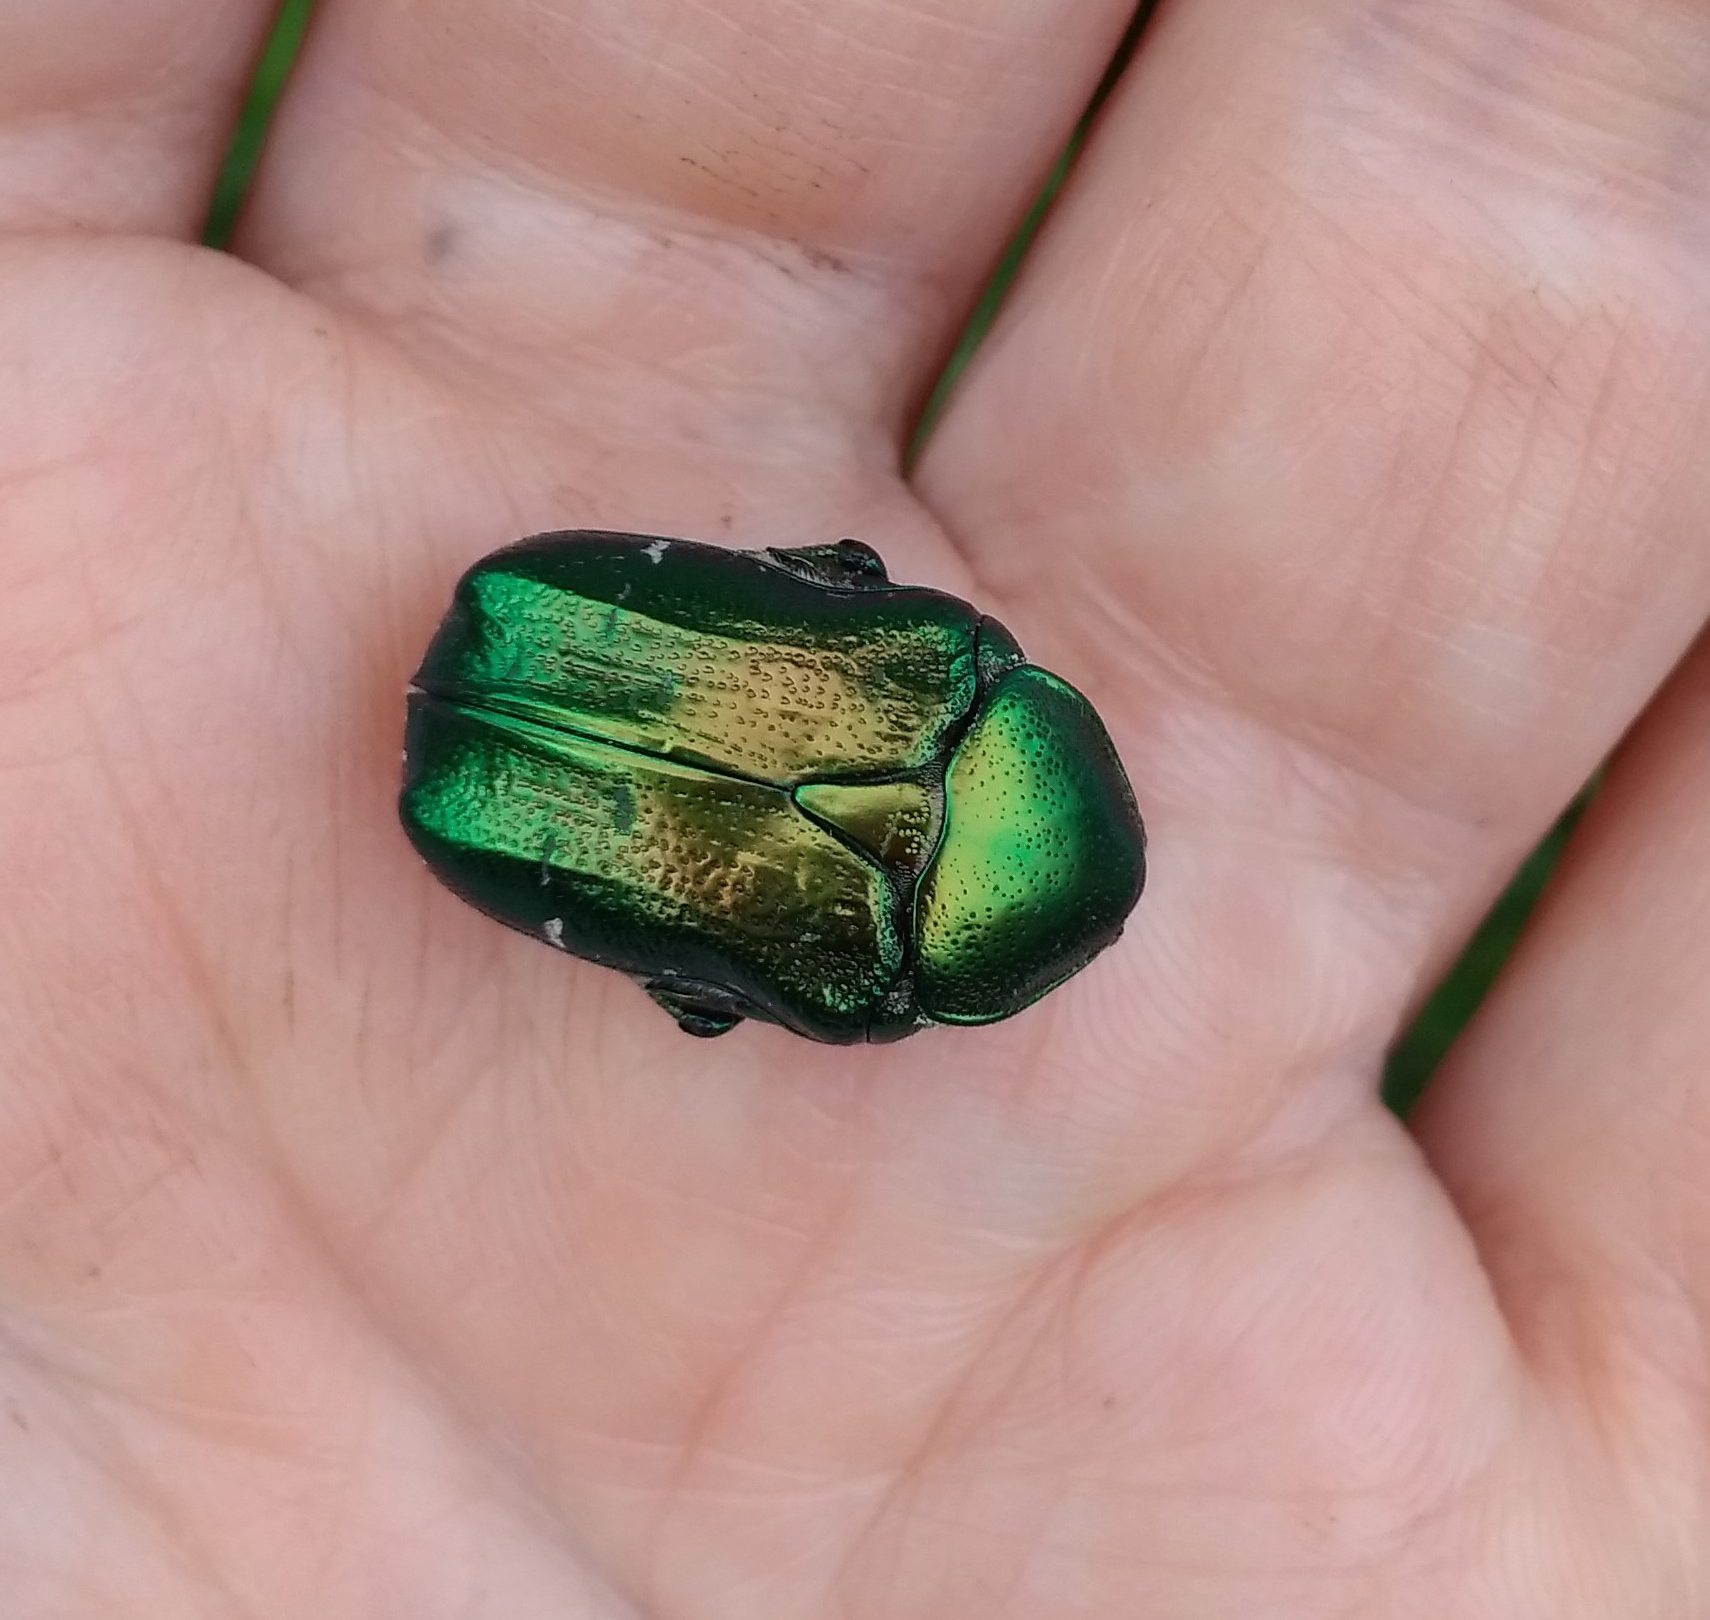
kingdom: Animalia
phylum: Arthropoda
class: Insecta
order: Coleoptera
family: Scarabaeidae
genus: Cetonia
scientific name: Cetonia aurata
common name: Rose chafer
